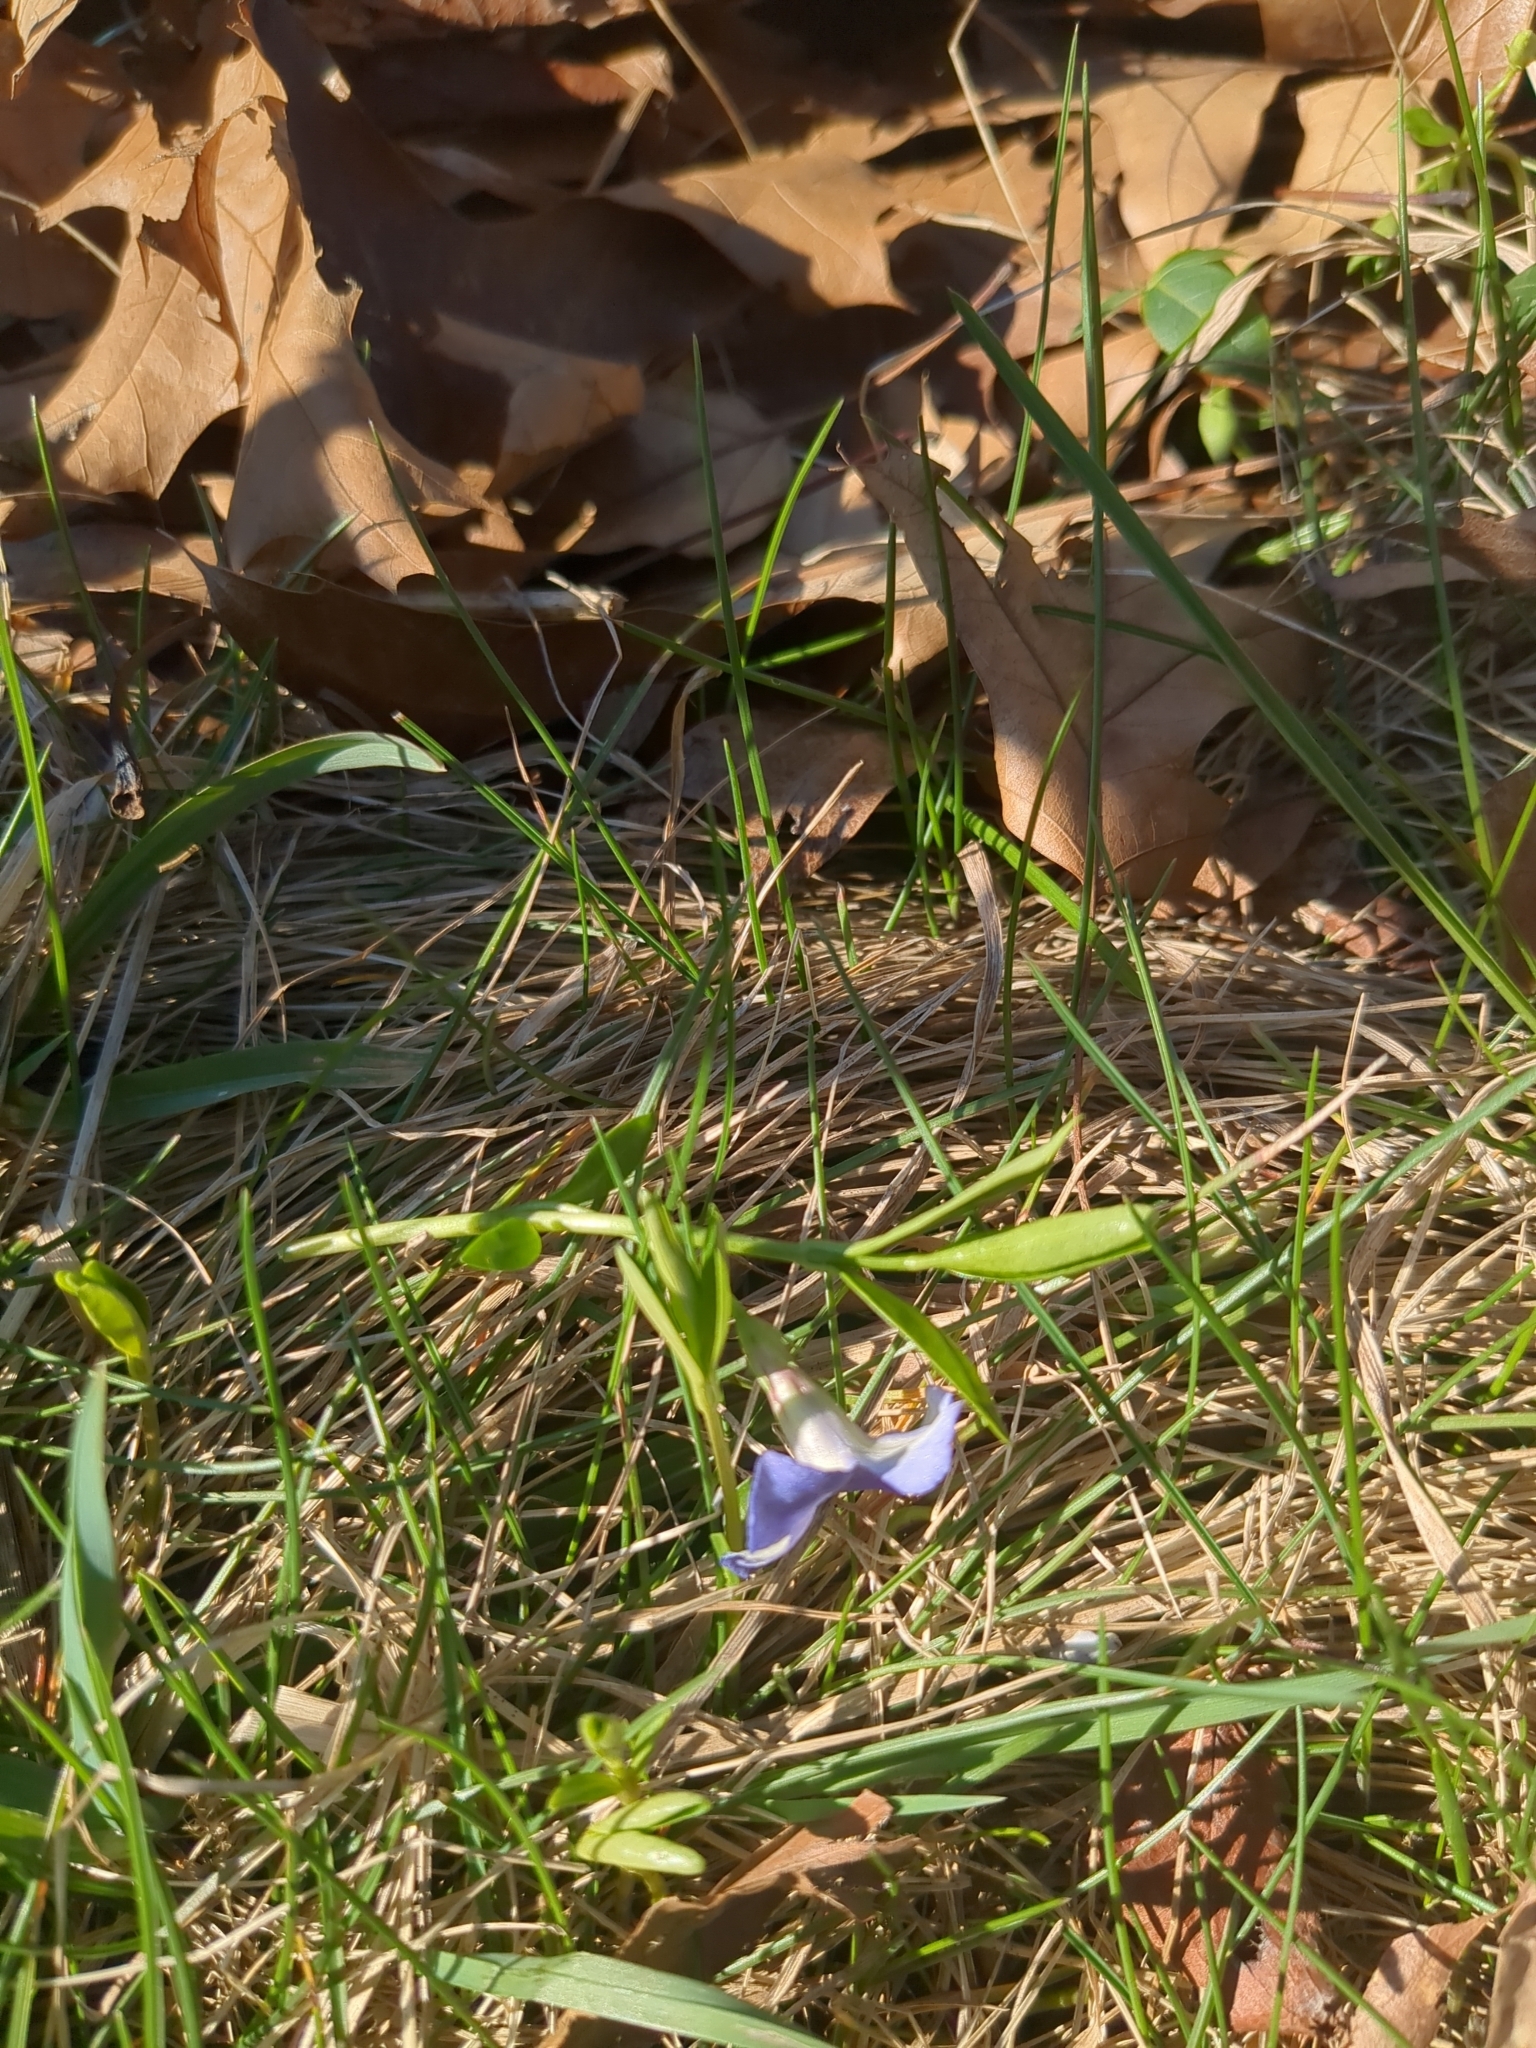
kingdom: Plantae
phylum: Tracheophyta
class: Magnoliopsida
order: Gentianales
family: Apocynaceae
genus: Vinca
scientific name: Vinca minor
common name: Lesser periwinkle
